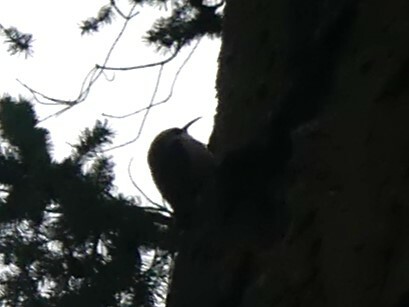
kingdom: Animalia
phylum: Chordata
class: Aves
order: Passeriformes
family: Certhiidae
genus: Certhia
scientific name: Certhia americana
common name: Brown creeper
